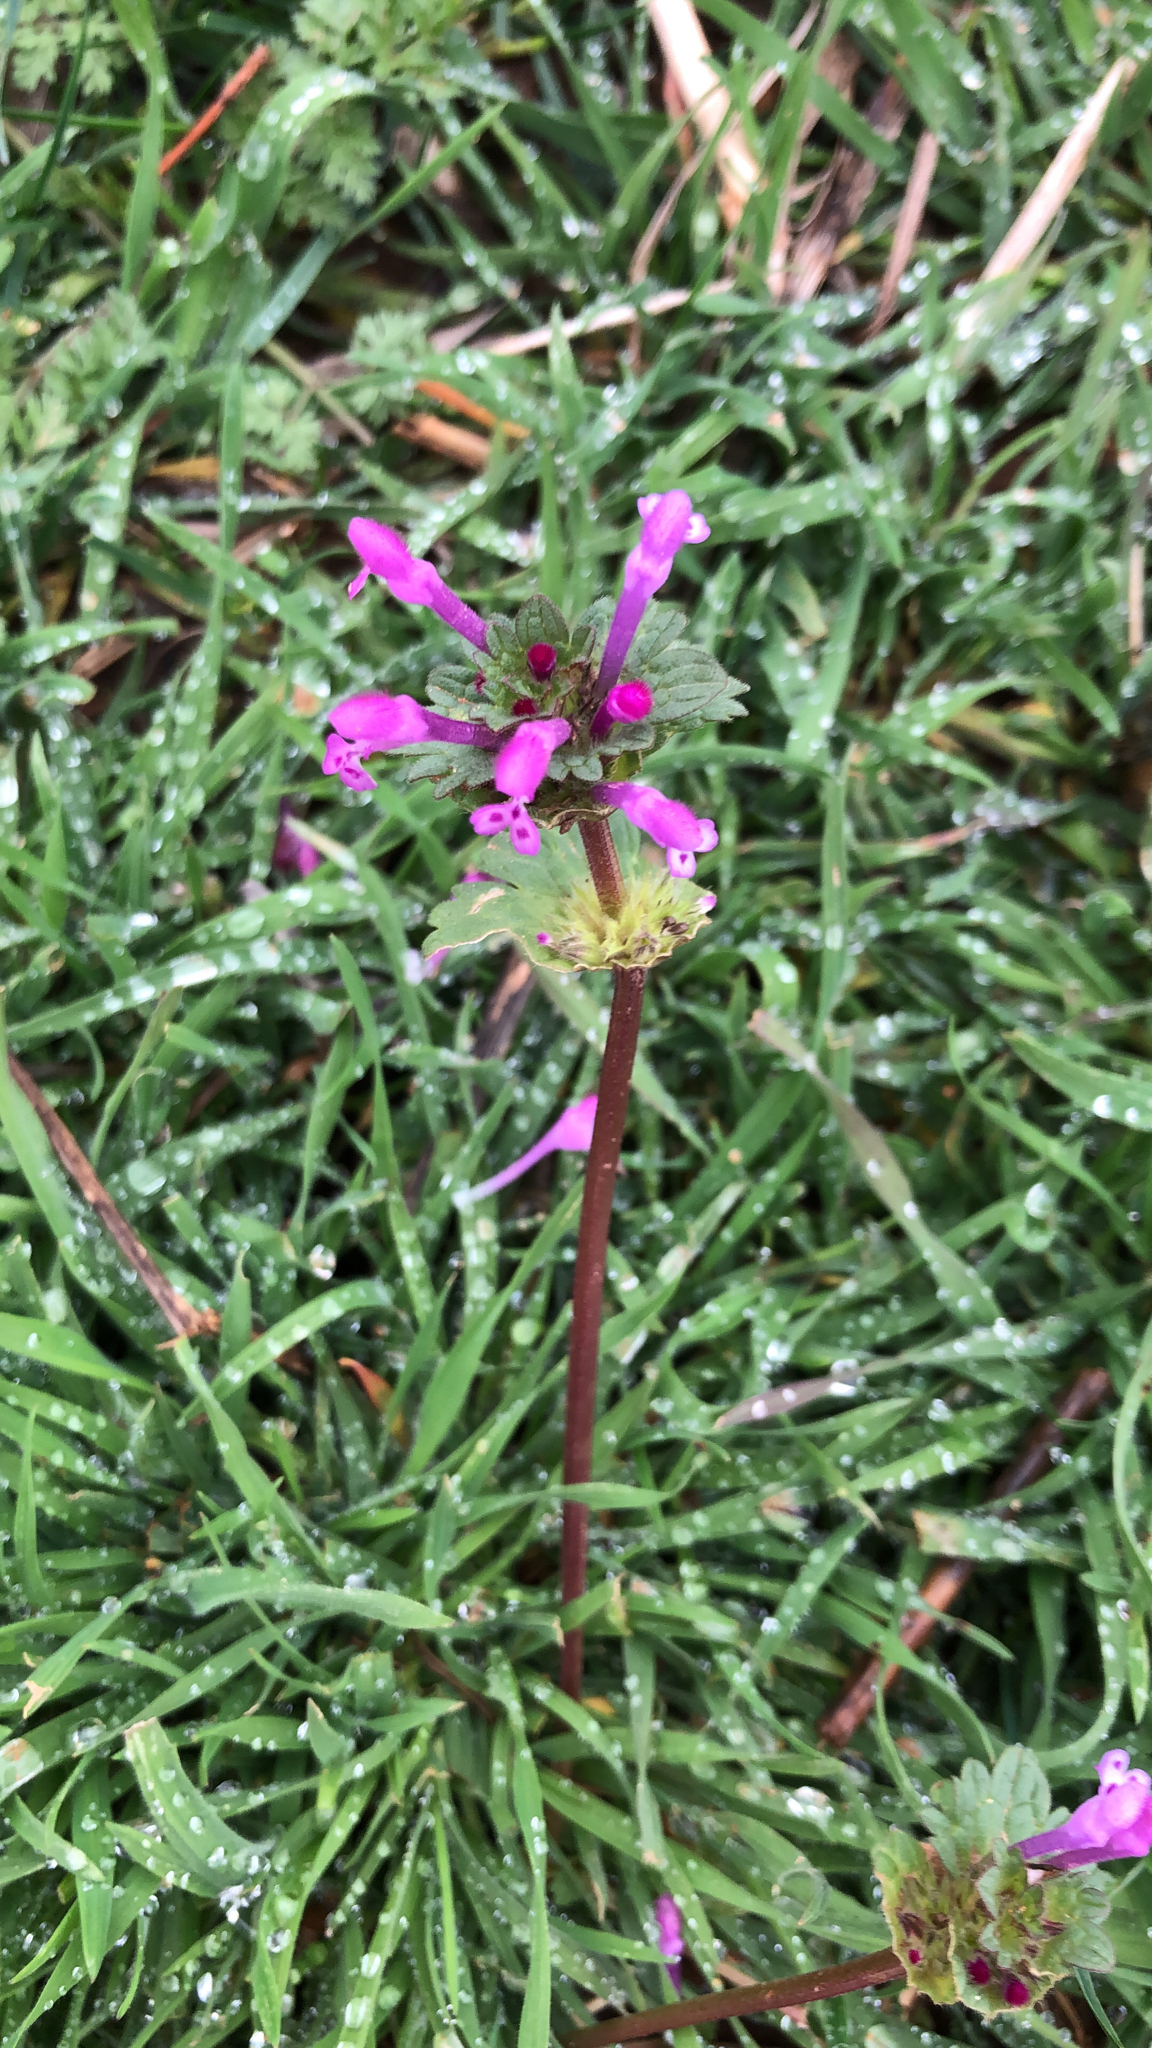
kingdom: Plantae
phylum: Tracheophyta
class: Magnoliopsida
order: Lamiales
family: Lamiaceae
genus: Lamium
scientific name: Lamium amplexicaule
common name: Henbit dead-nettle
